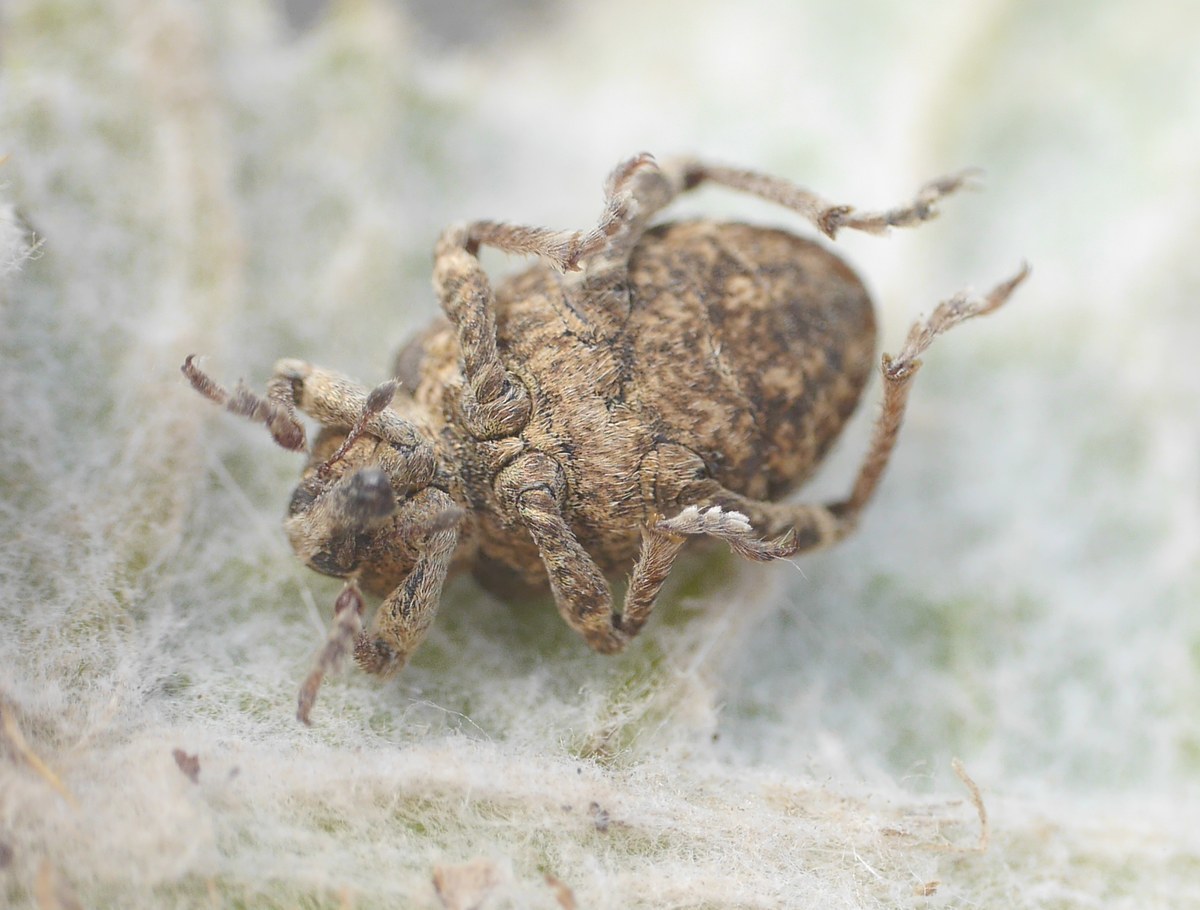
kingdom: Animalia
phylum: Arthropoda
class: Insecta
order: Coleoptera
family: Curculionidae
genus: Brachypera
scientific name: Brachypera dauci
